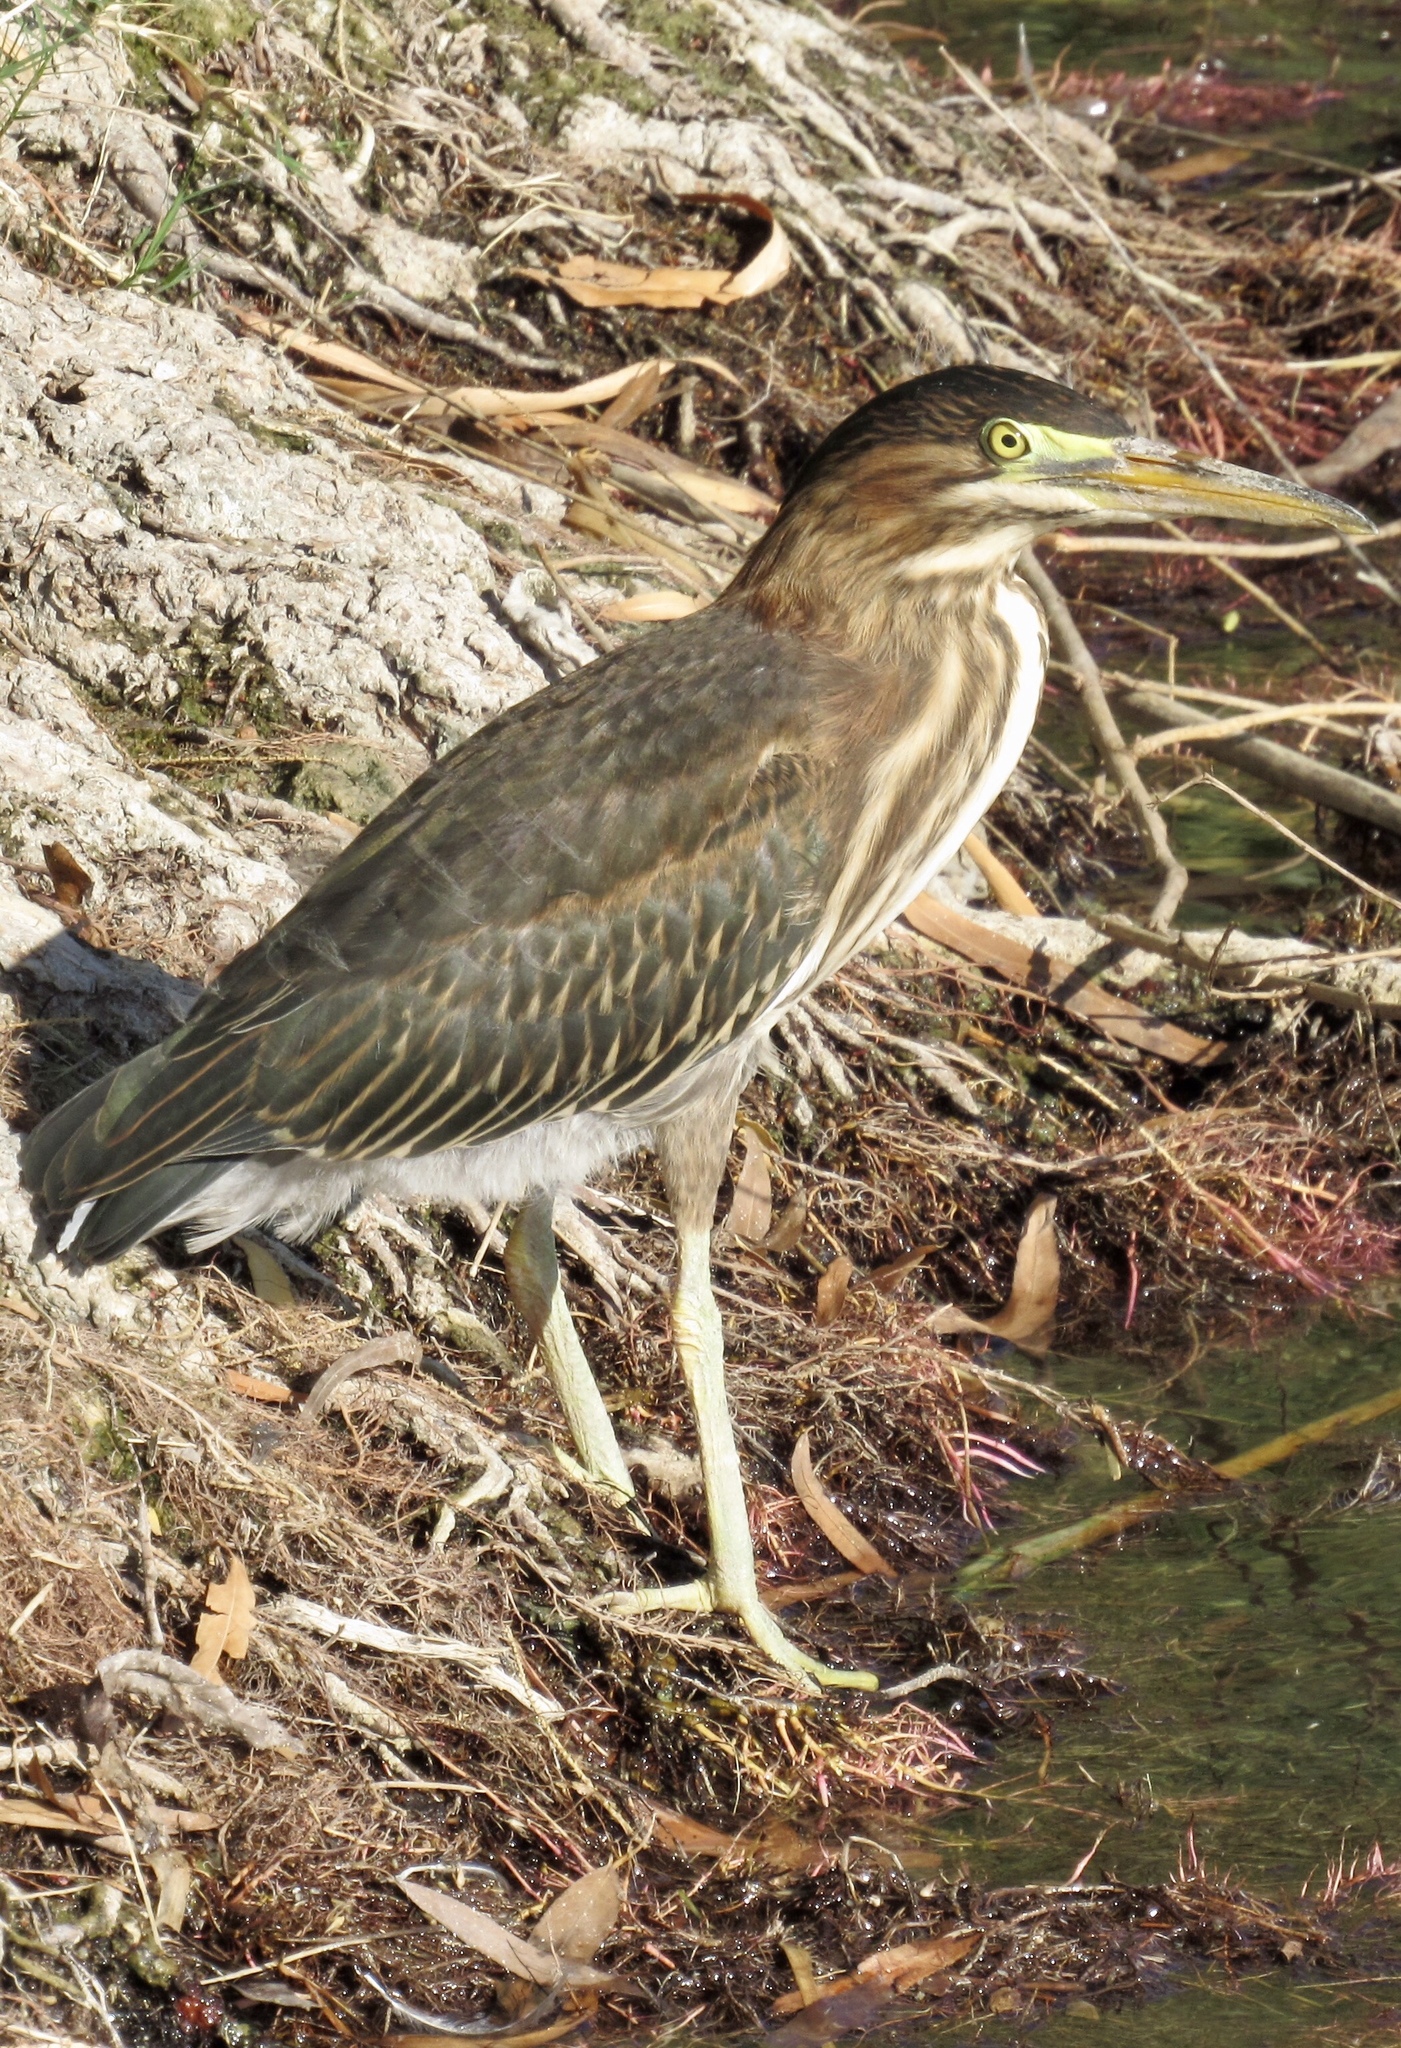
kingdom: Animalia
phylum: Chordata
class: Aves
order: Pelecaniformes
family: Ardeidae
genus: Butorides
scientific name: Butorides virescens
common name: Green heron
